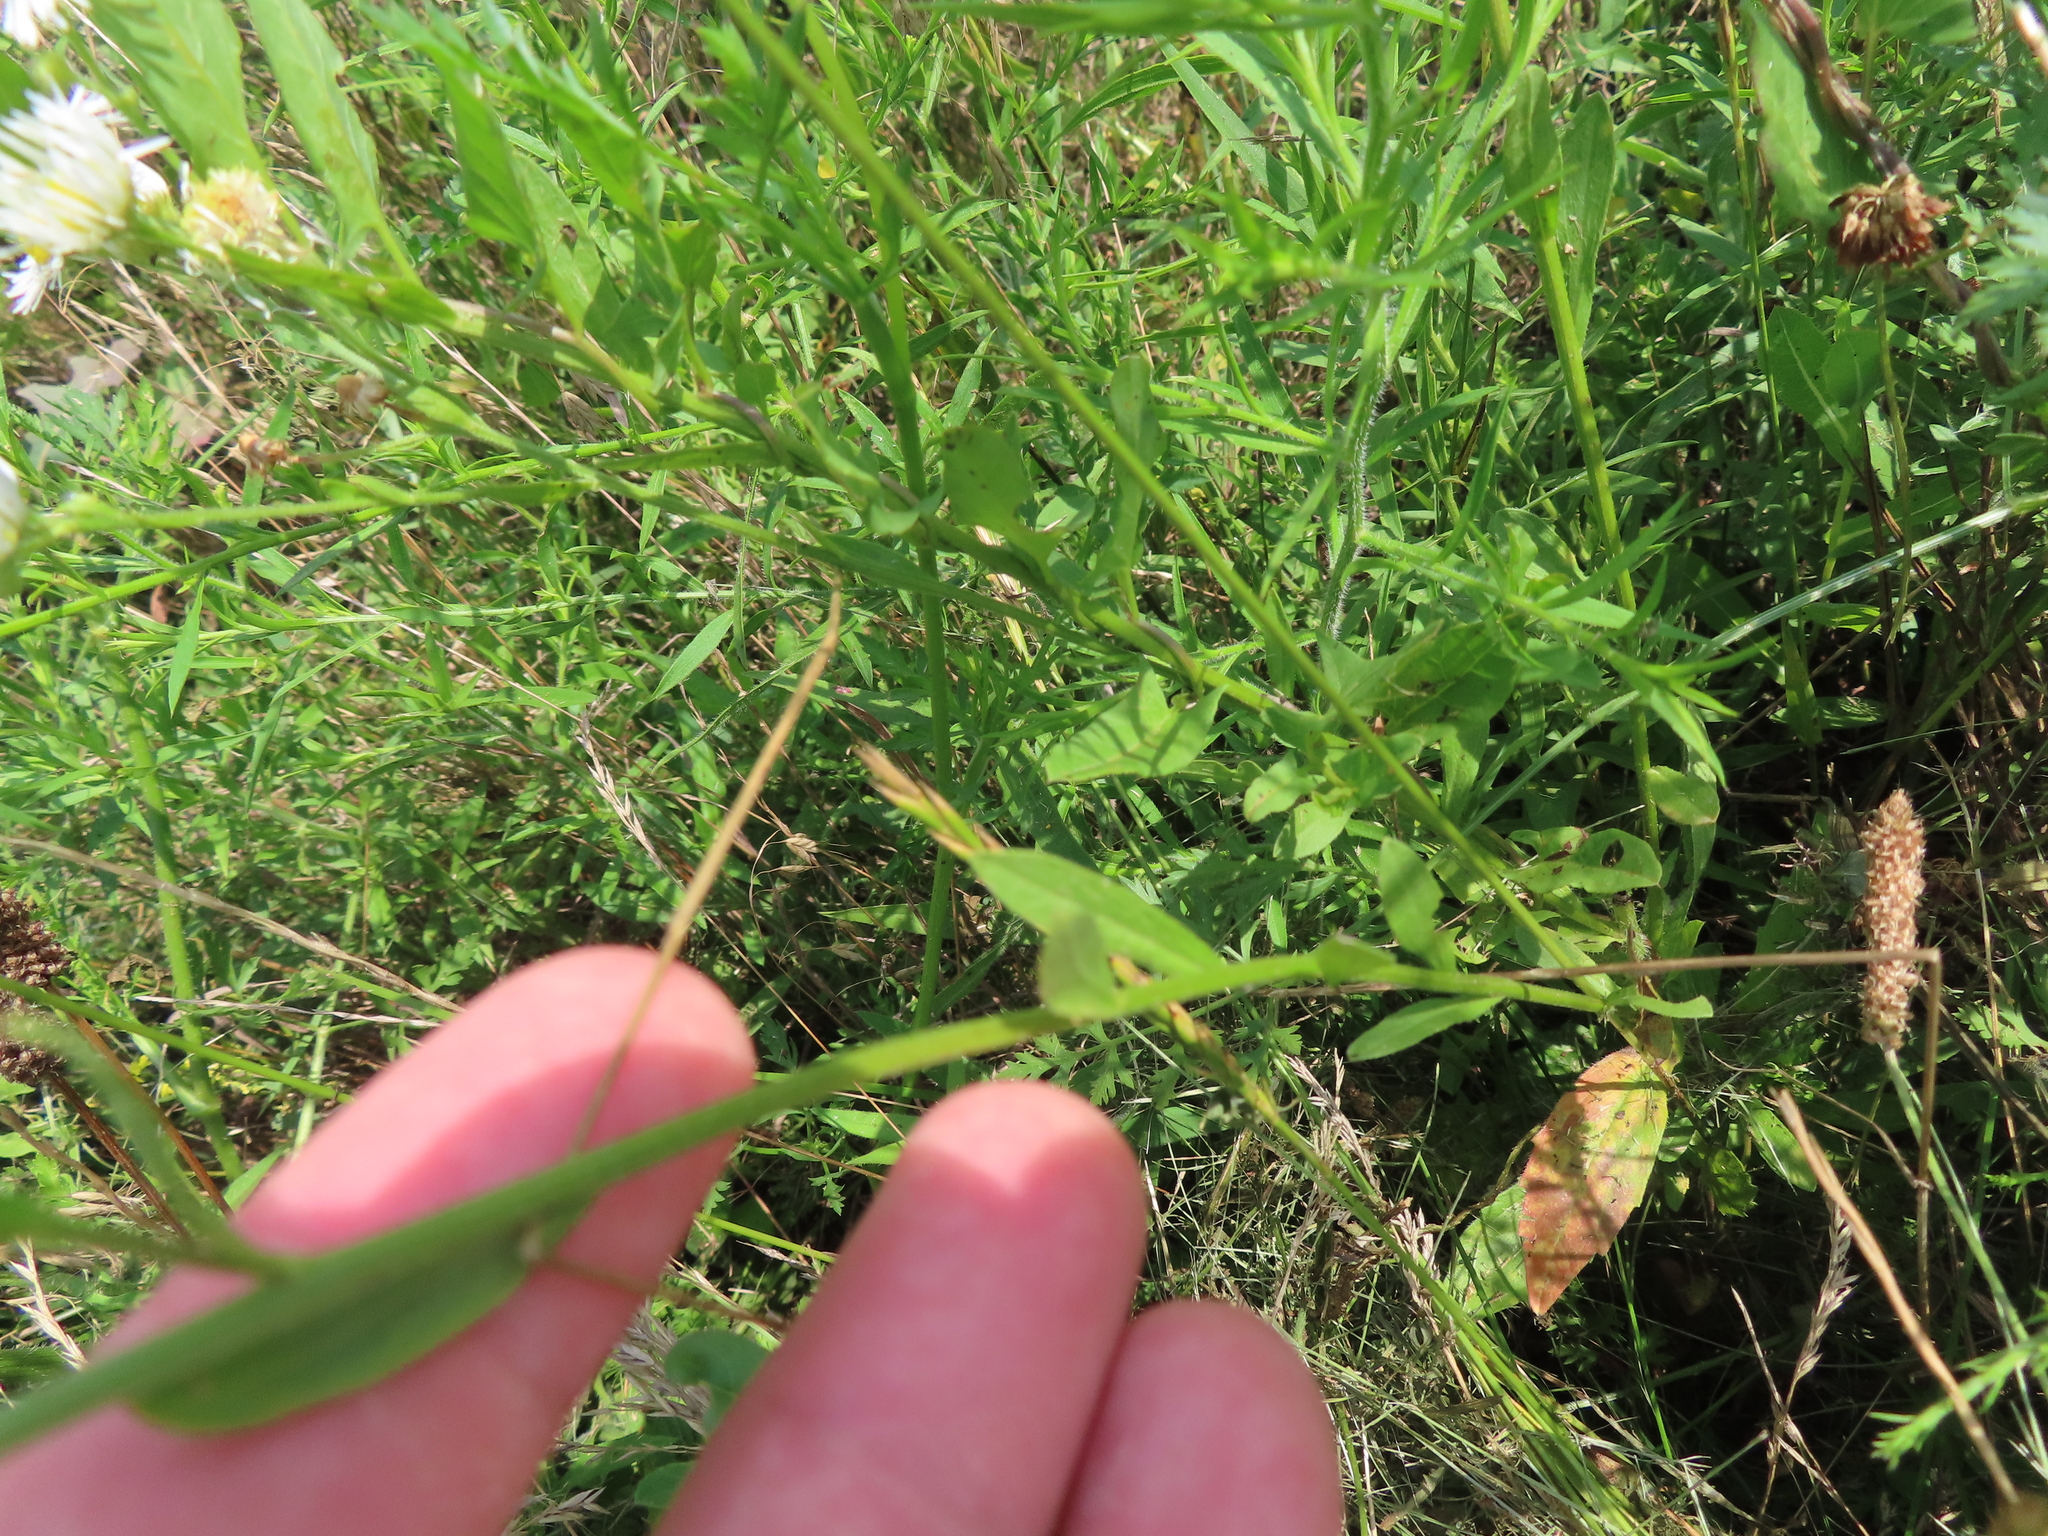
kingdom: Plantae
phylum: Tracheophyta
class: Magnoliopsida
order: Asterales
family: Asteraceae
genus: Erigeron
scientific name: Erigeron strigosus
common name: Common eastern fleabane
